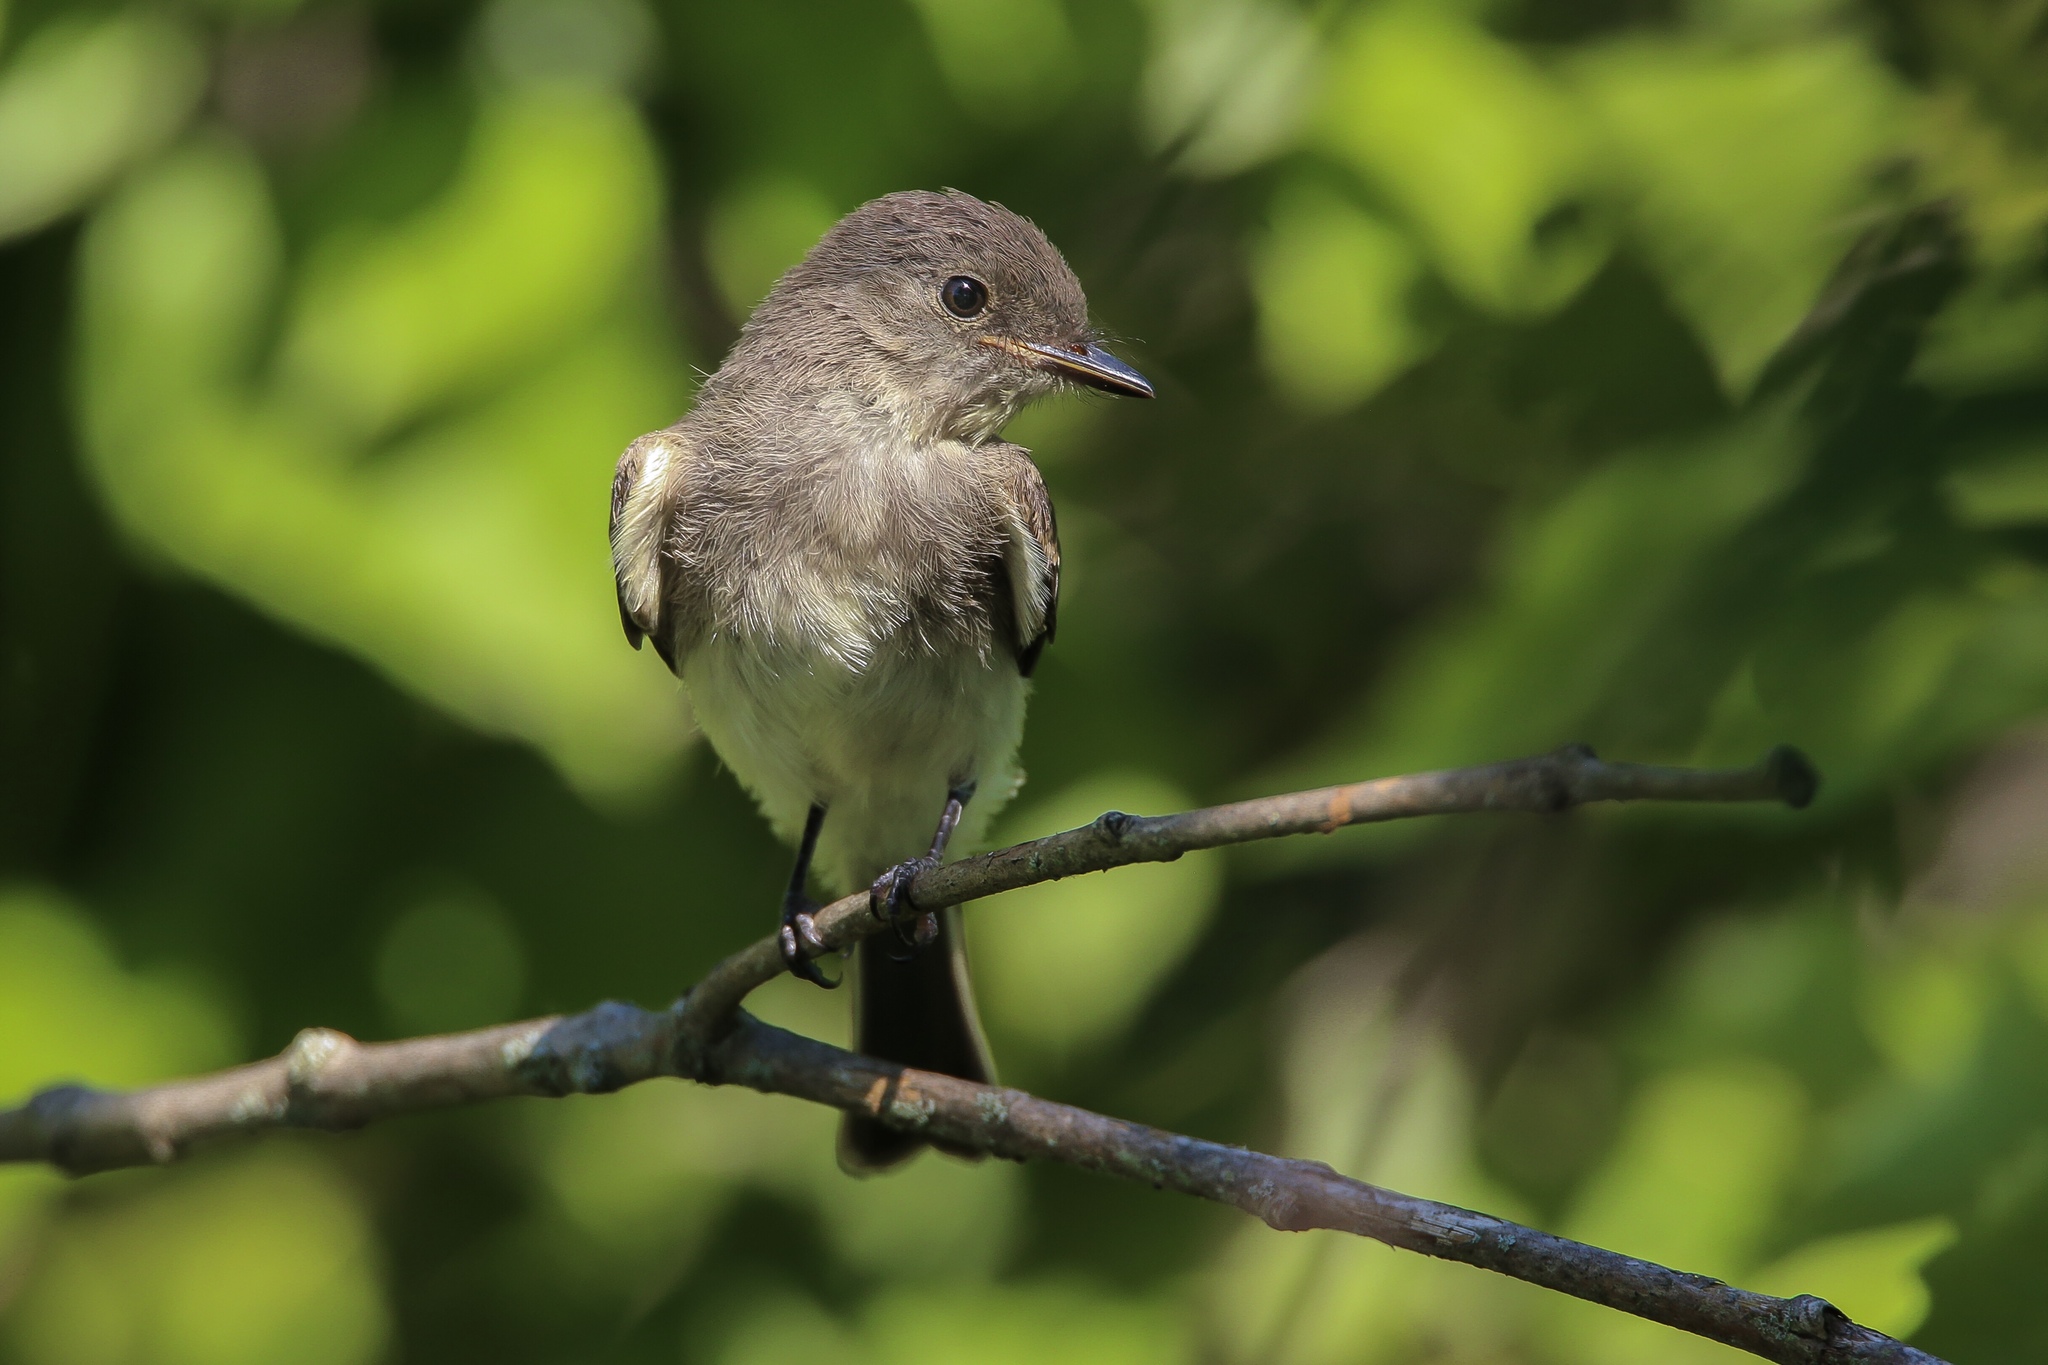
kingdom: Animalia
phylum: Chordata
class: Aves
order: Passeriformes
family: Tyrannidae
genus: Contopus
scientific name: Contopus virens
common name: Eastern wood-pewee
